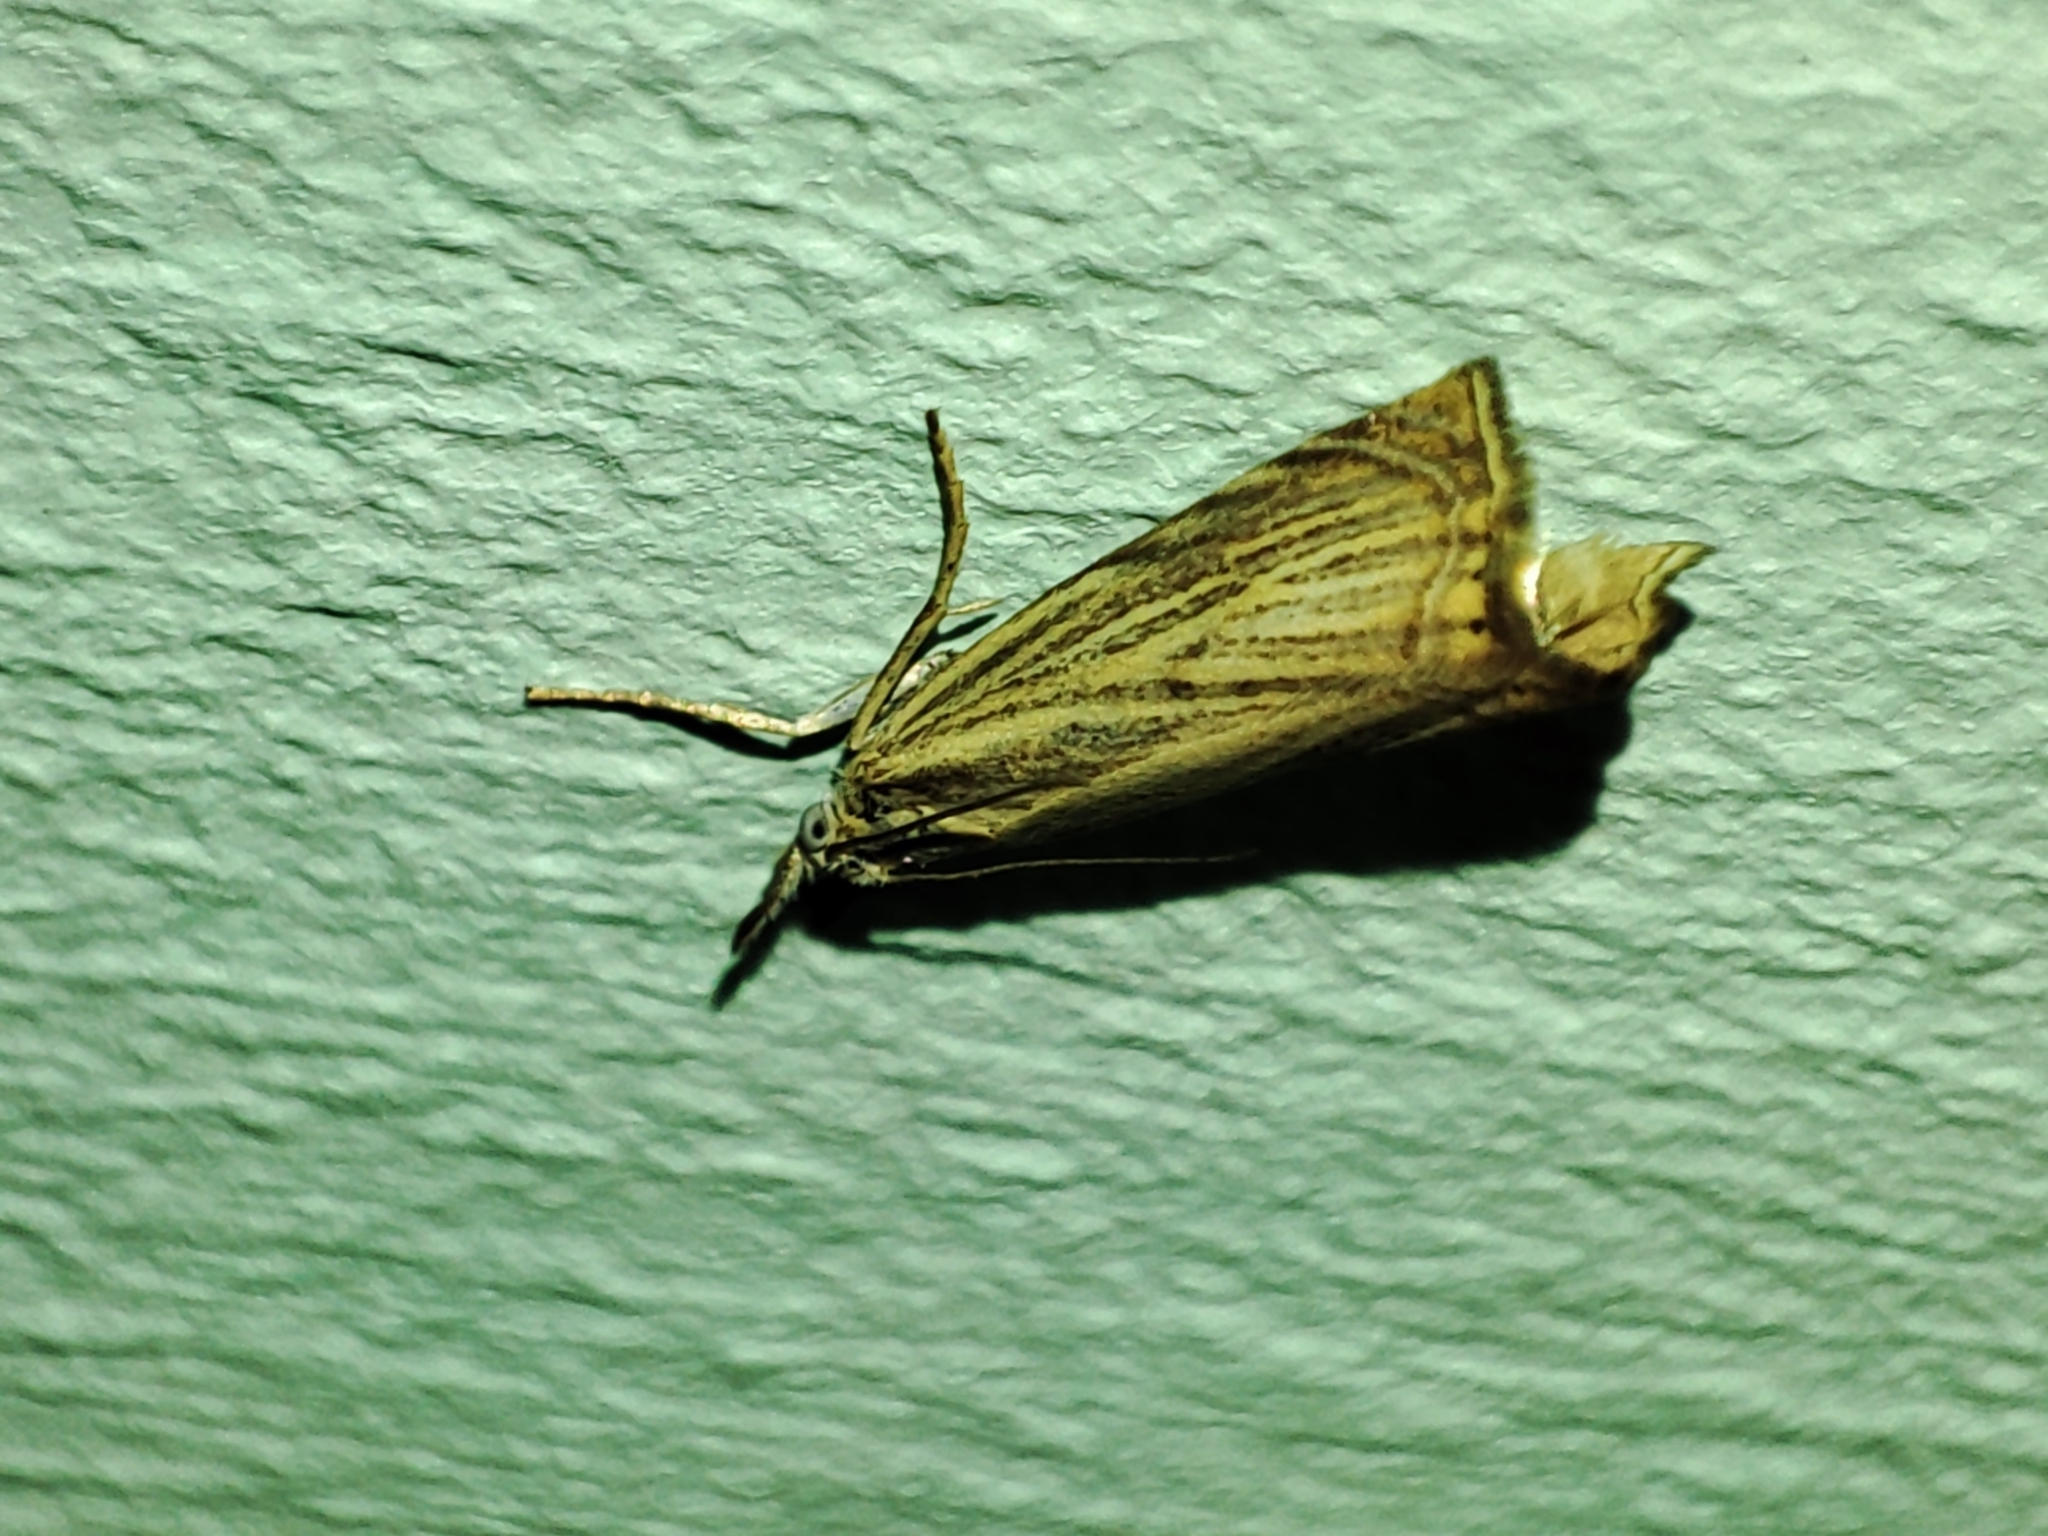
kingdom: Animalia
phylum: Arthropoda
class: Insecta
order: Lepidoptera
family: Crambidae
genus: Chrysoteuchia
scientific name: Chrysoteuchia culmella
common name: Garden grass-veneer
